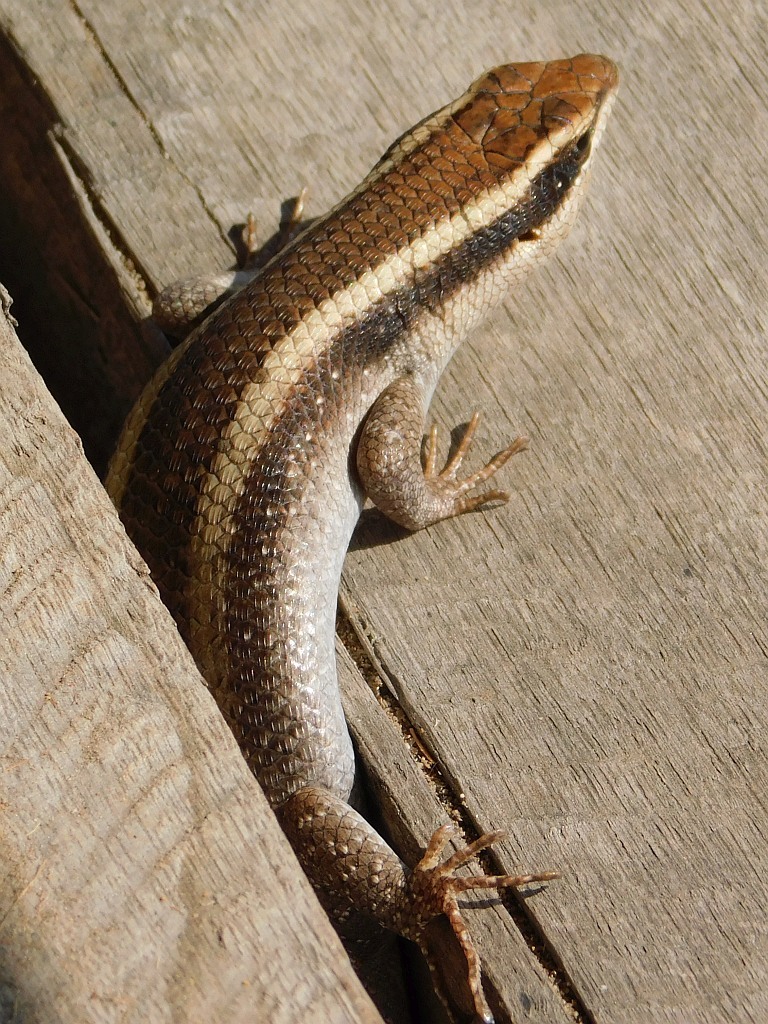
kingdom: Animalia
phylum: Chordata
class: Squamata
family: Scincidae
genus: Trachylepis
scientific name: Trachylepis striata
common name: African striped mabuya
